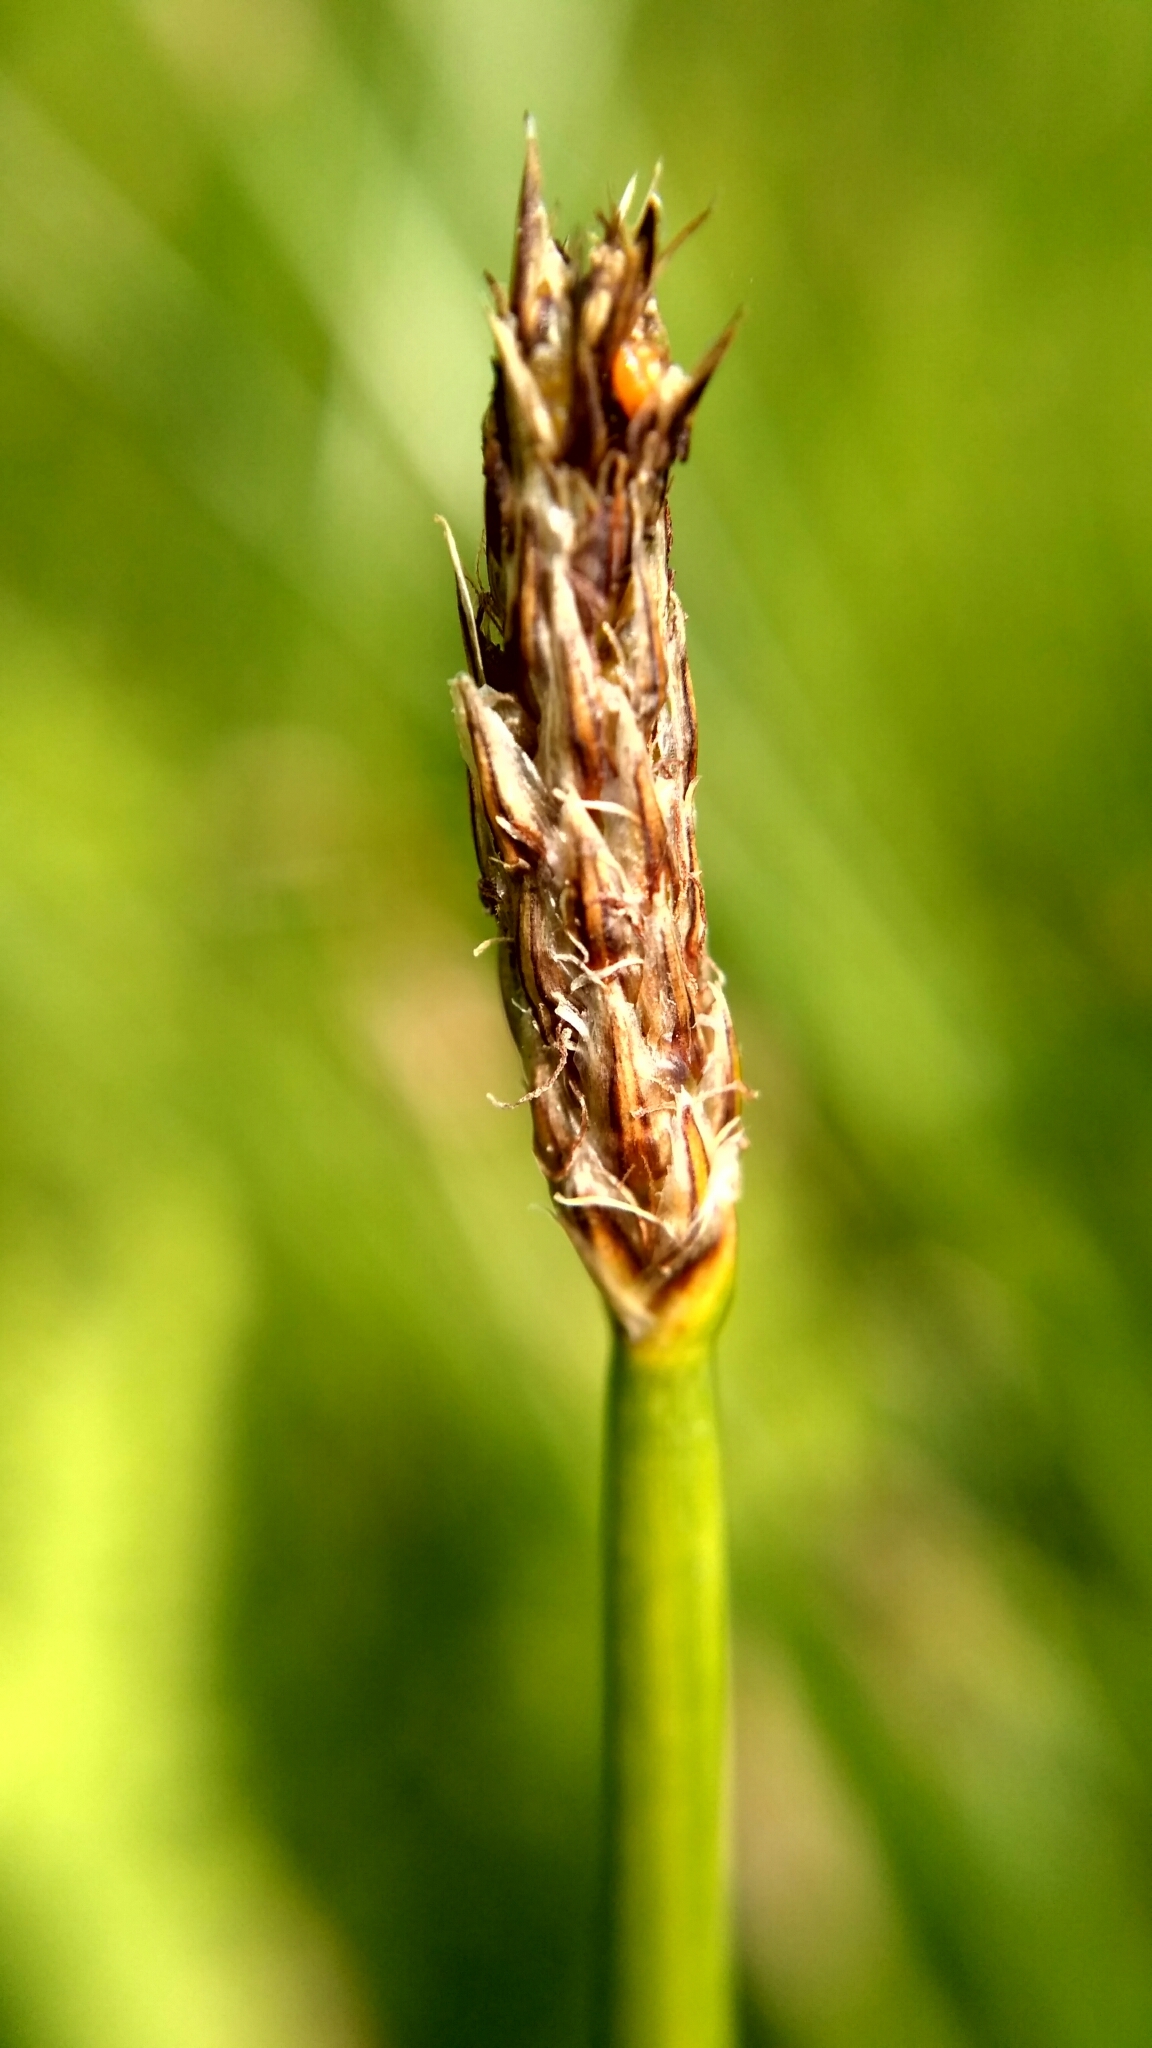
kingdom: Plantae
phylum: Tracheophyta
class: Liliopsida
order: Poales
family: Cyperaceae
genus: Eleocharis
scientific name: Eleocharis palustris
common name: Common spike-rush
